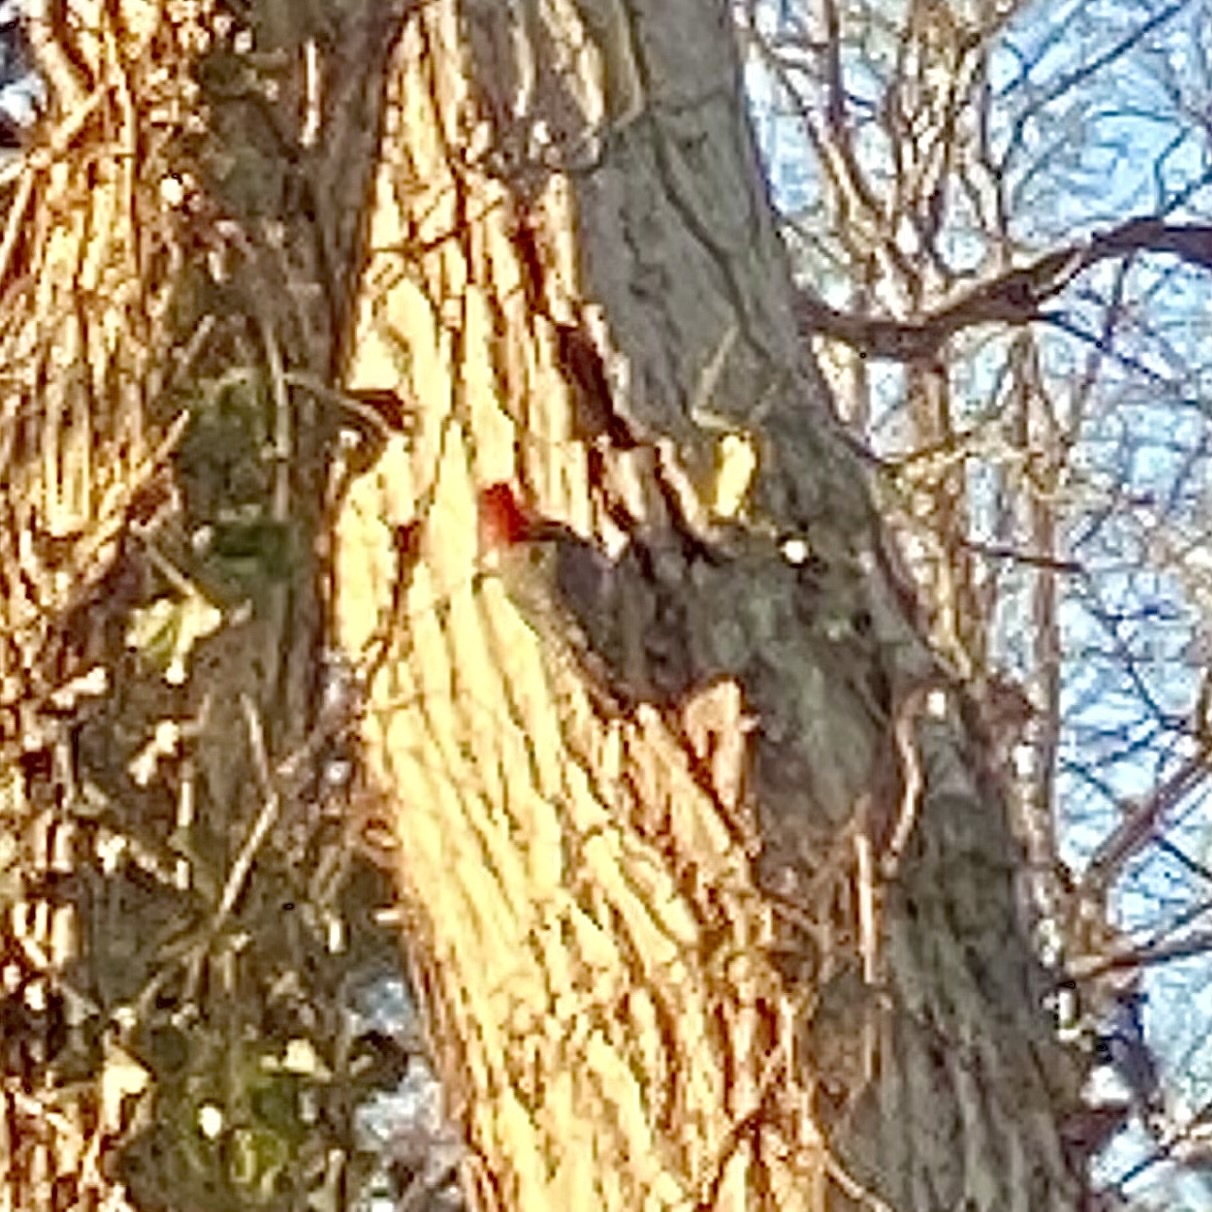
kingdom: Animalia
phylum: Chordata
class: Aves
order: Piciformes
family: Picidae
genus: Melanerpes
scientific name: Melanerpes carolinus
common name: Red-bellied woodpecker
